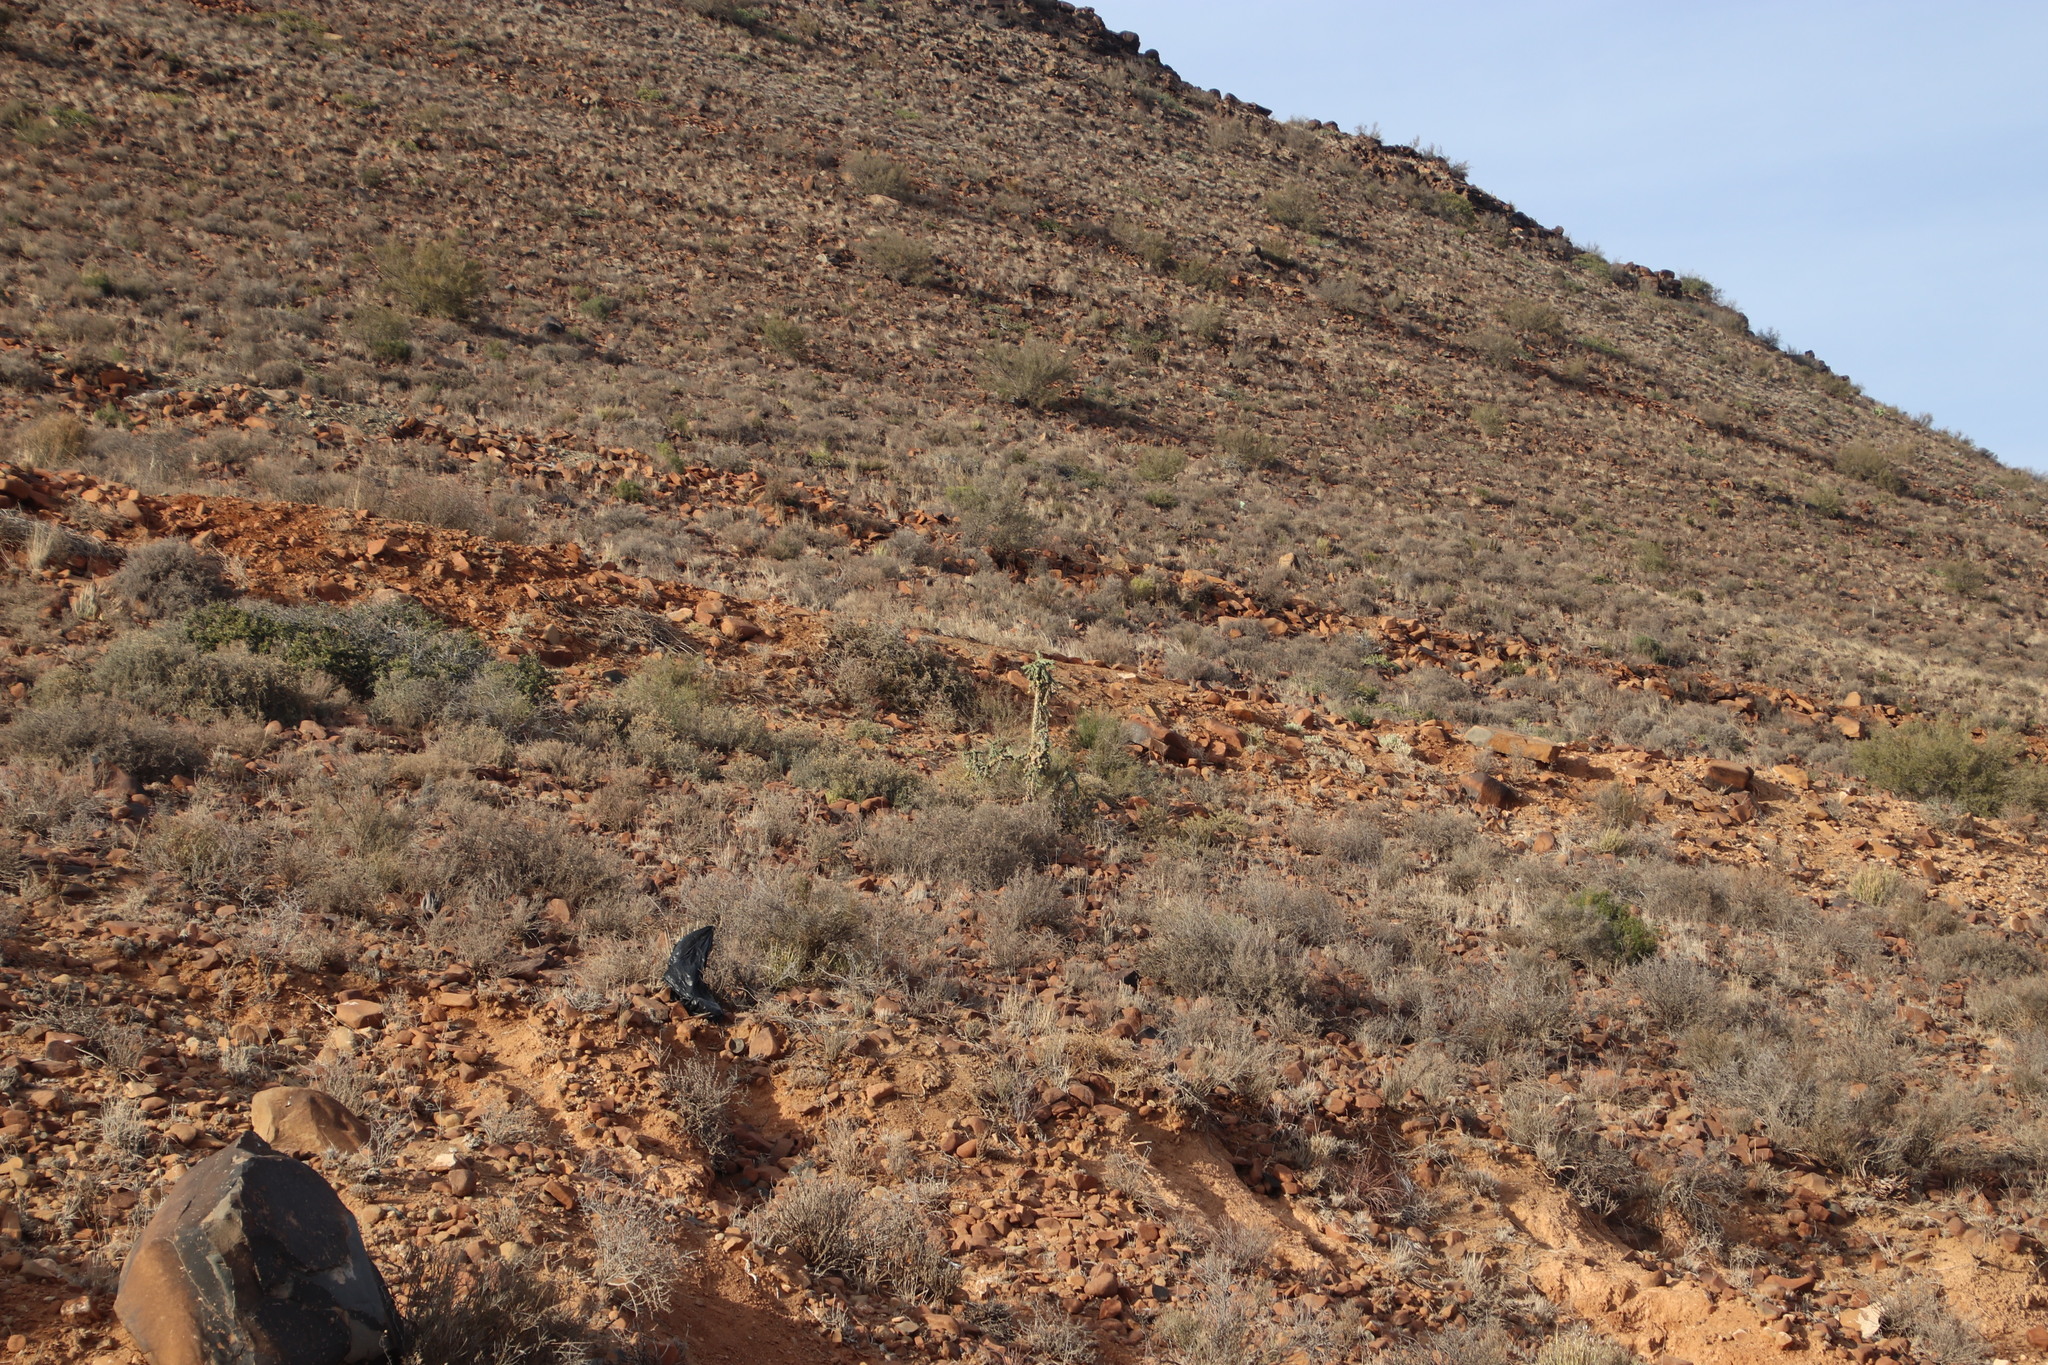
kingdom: Plantae
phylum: Tracheophyta
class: Magnoliopsida
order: Caryophyllales
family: Cactaceae
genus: Cylindropuntia
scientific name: Cylindropuntia imbricata
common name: Candelabrum cactus
